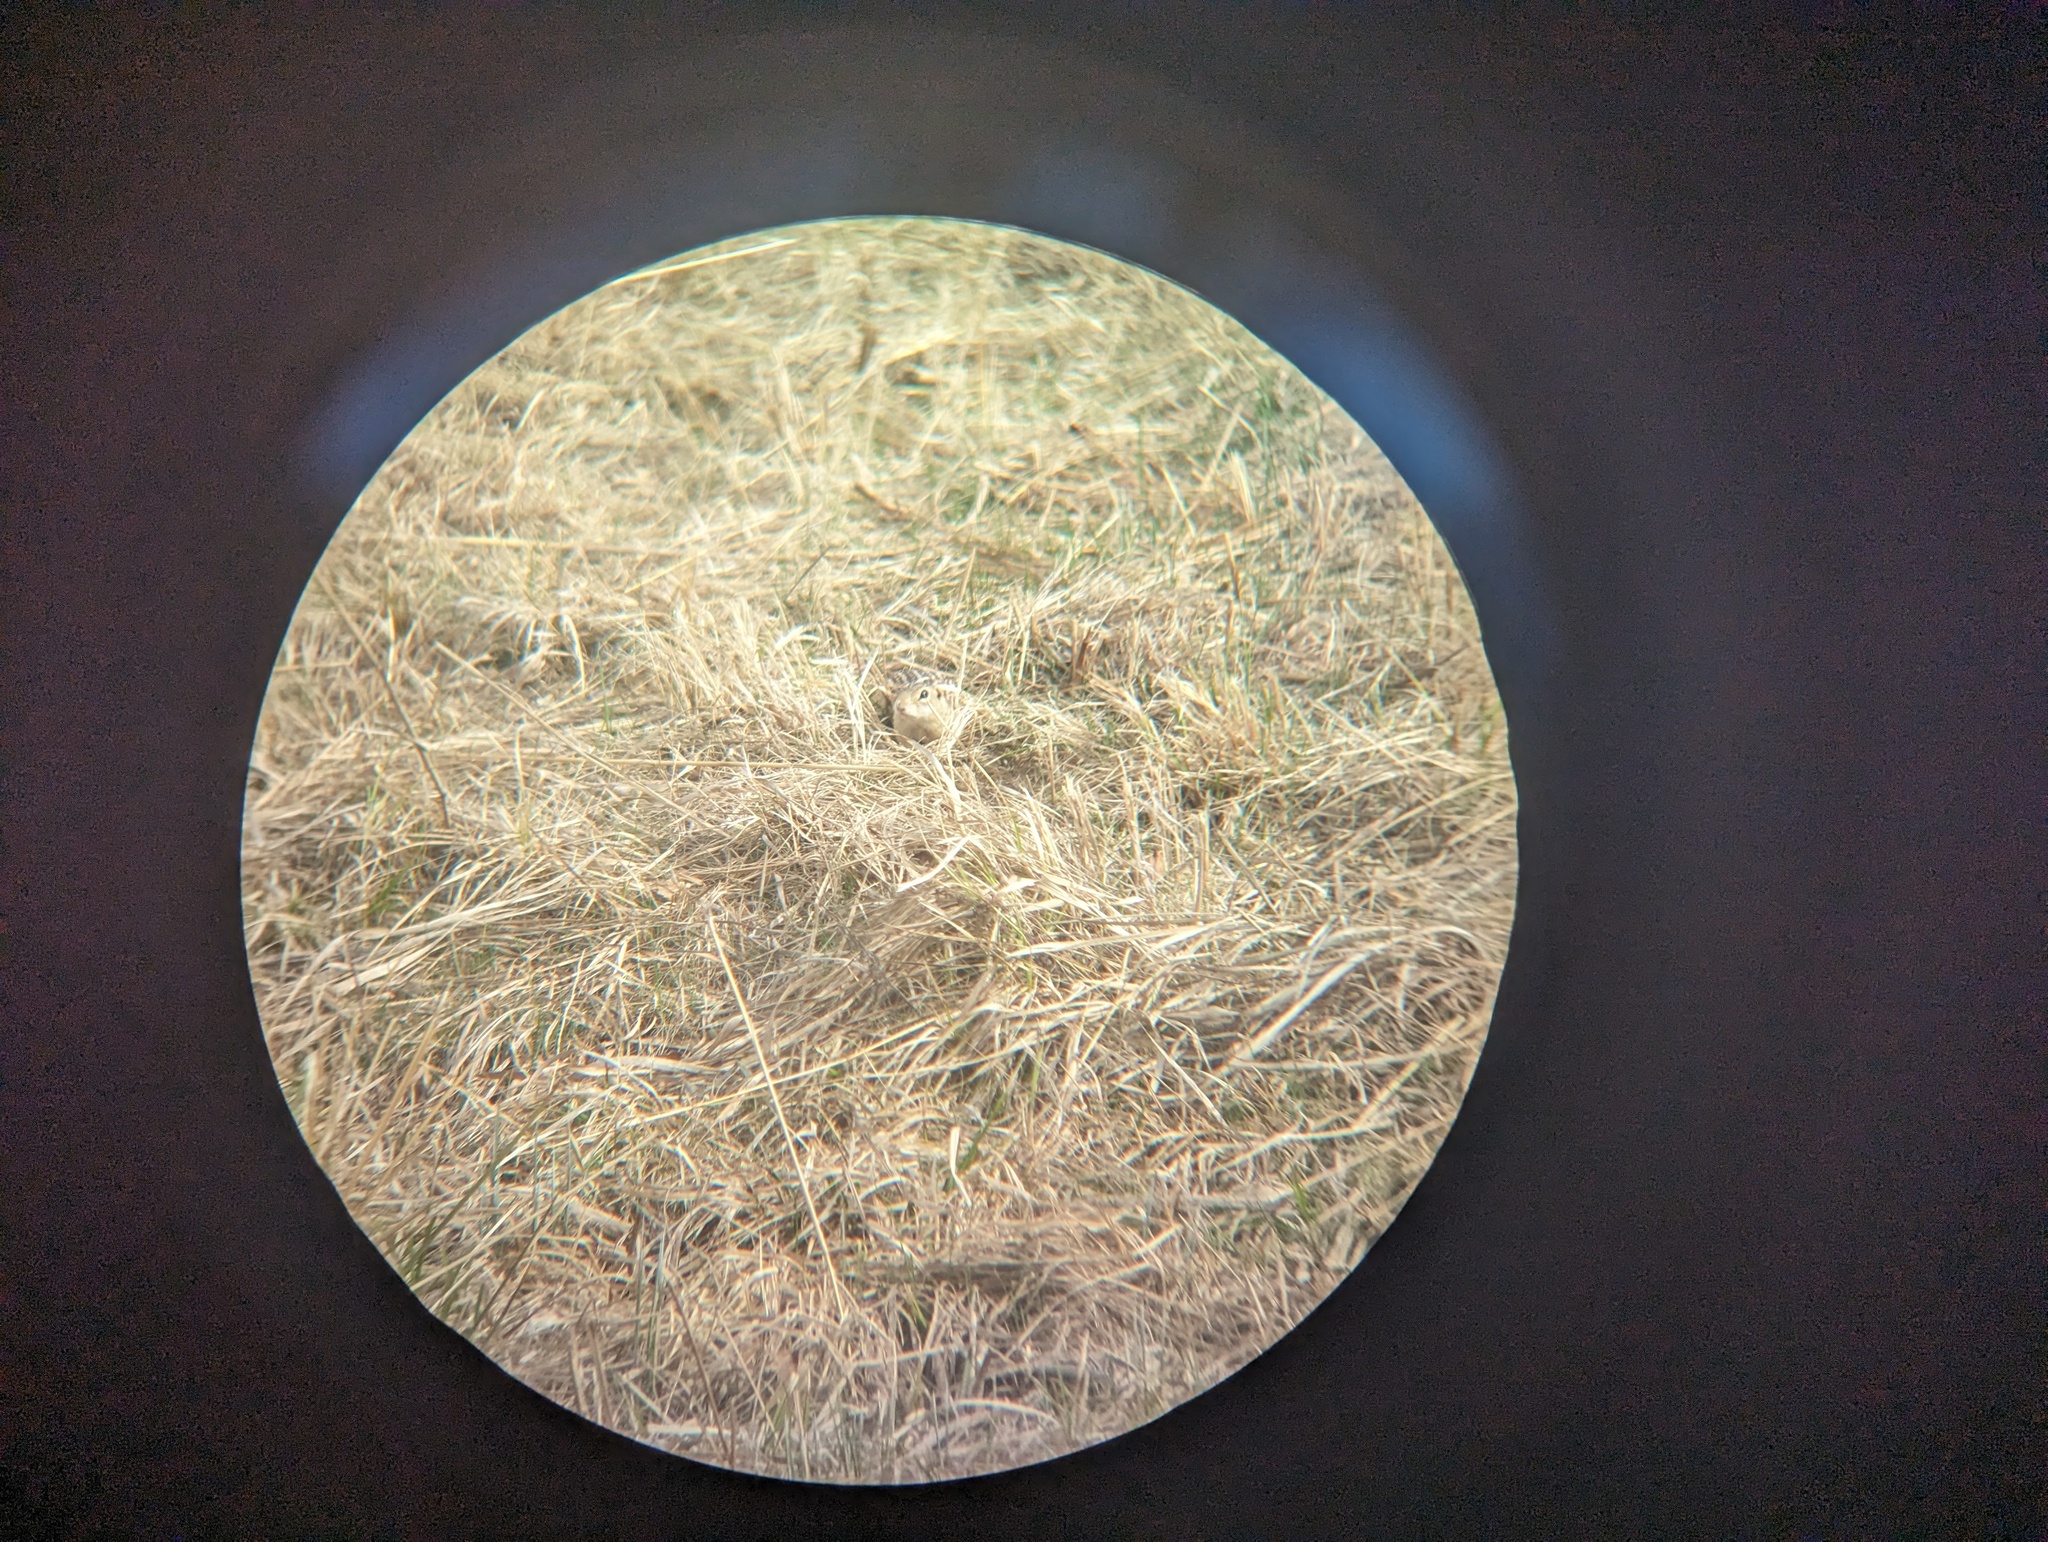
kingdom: Animalia
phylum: Chordata
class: Mammalia
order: Rodentia
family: Sciuridae
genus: Ictidomys
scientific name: Ictidomys tridecemlineatus
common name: Thirteen-lined ground squirrel
